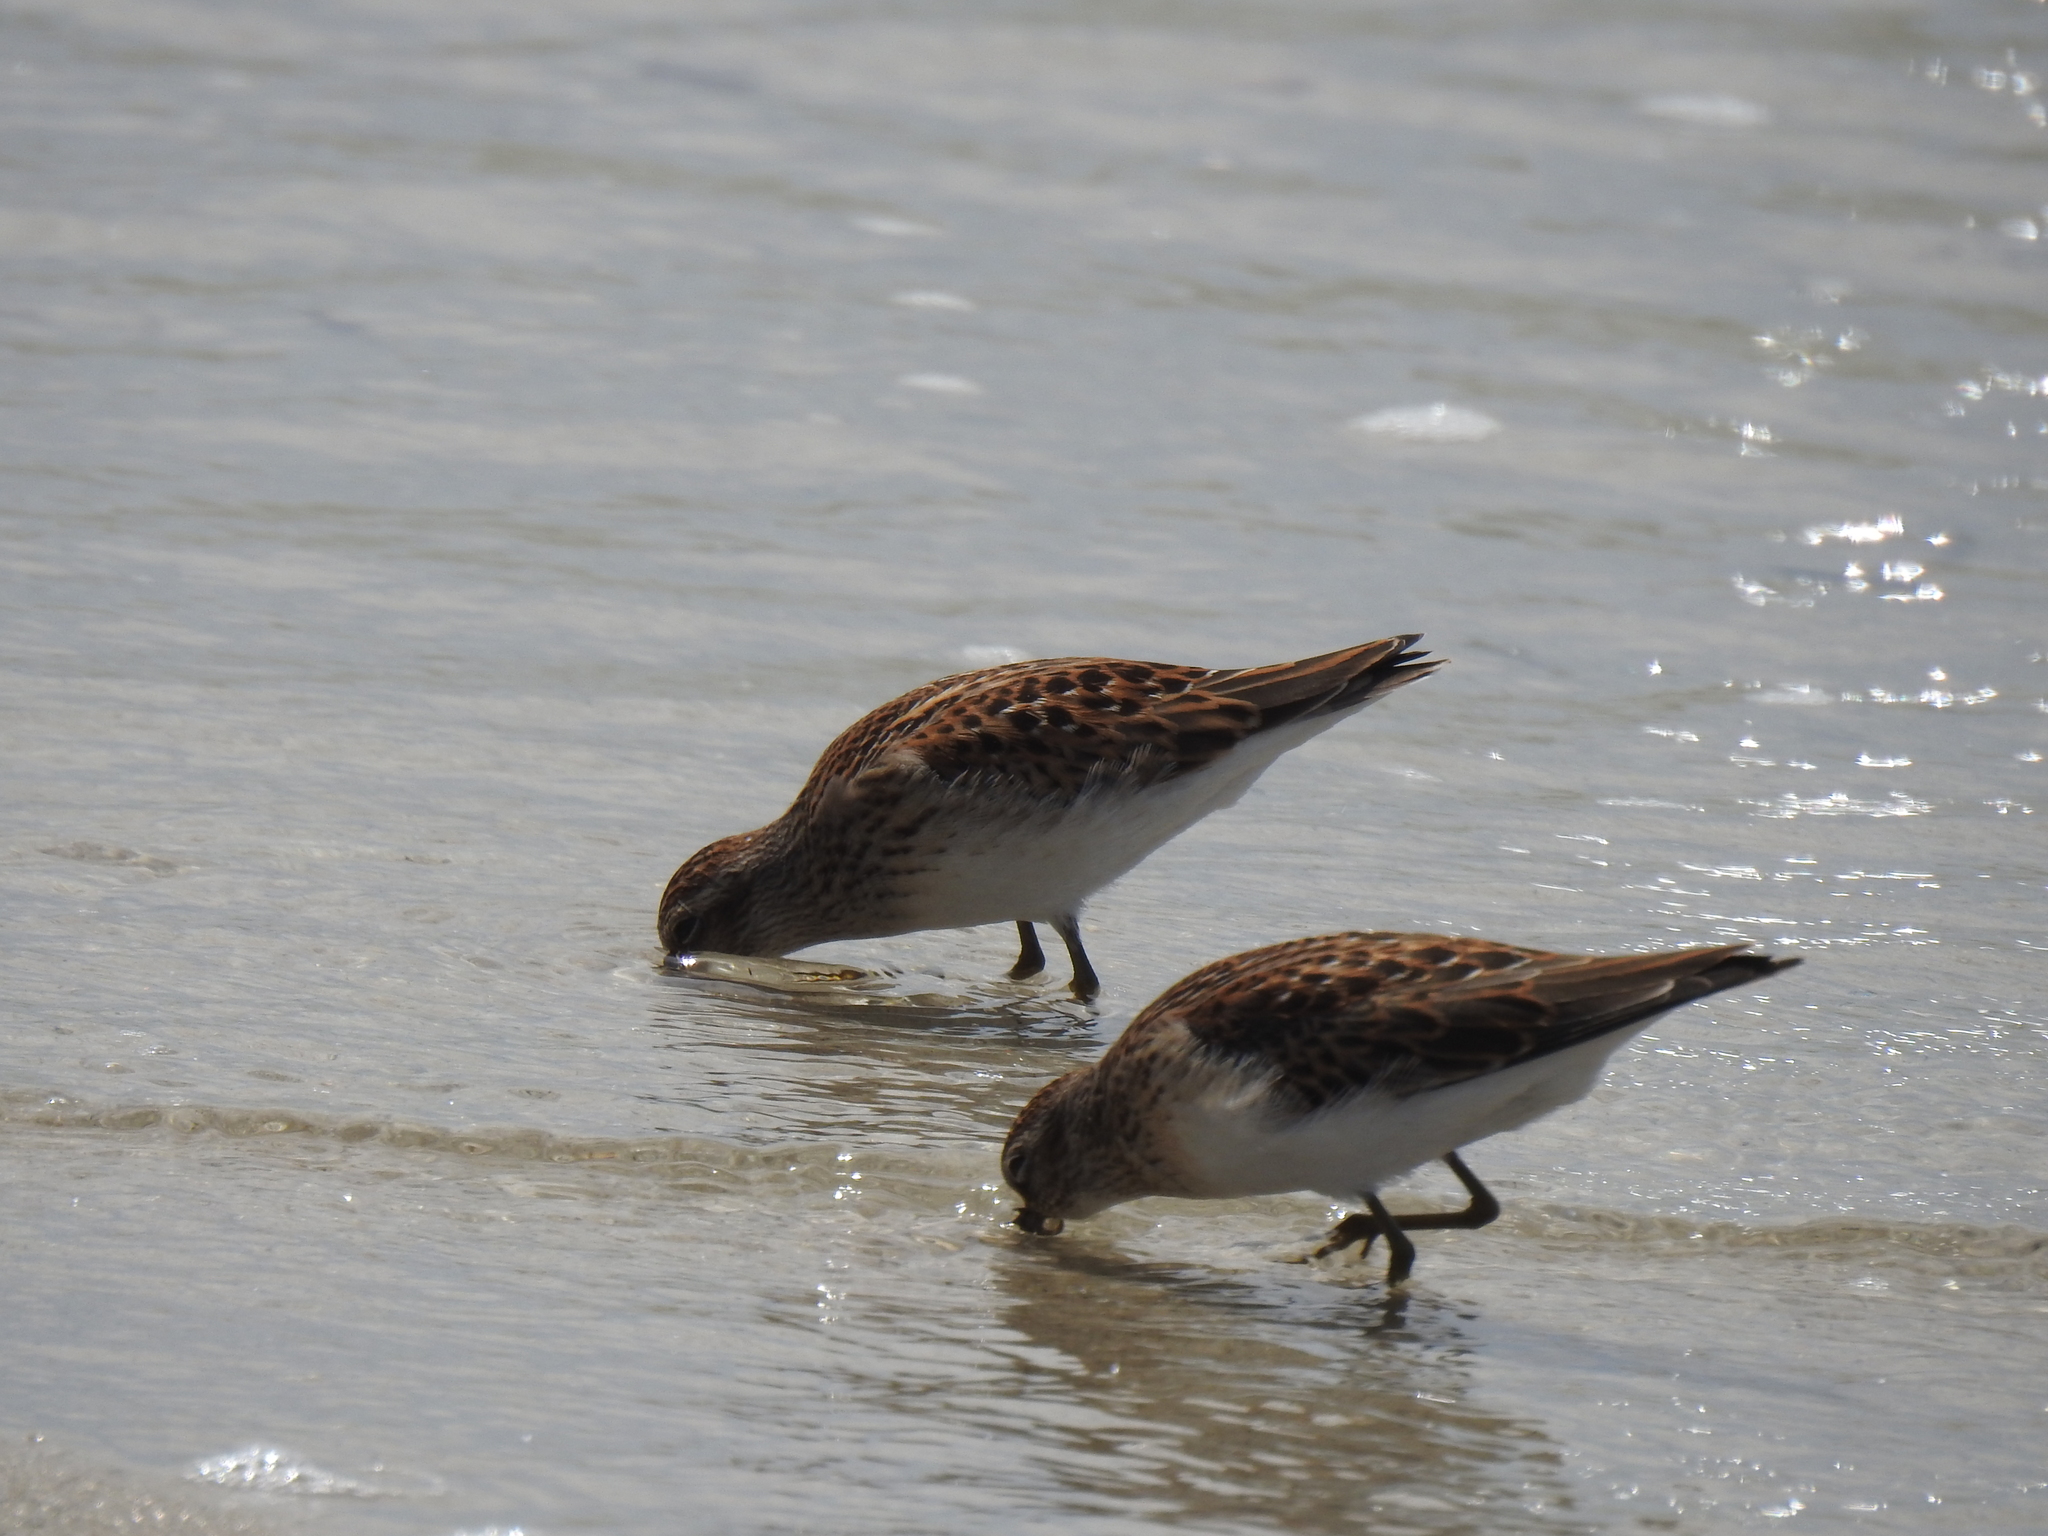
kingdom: Animalia
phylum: Chordata
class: Aves
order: Charadriiformes
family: Scolopacidae
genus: Calidris
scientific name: Calidris minutilla
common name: Least sandpiper
